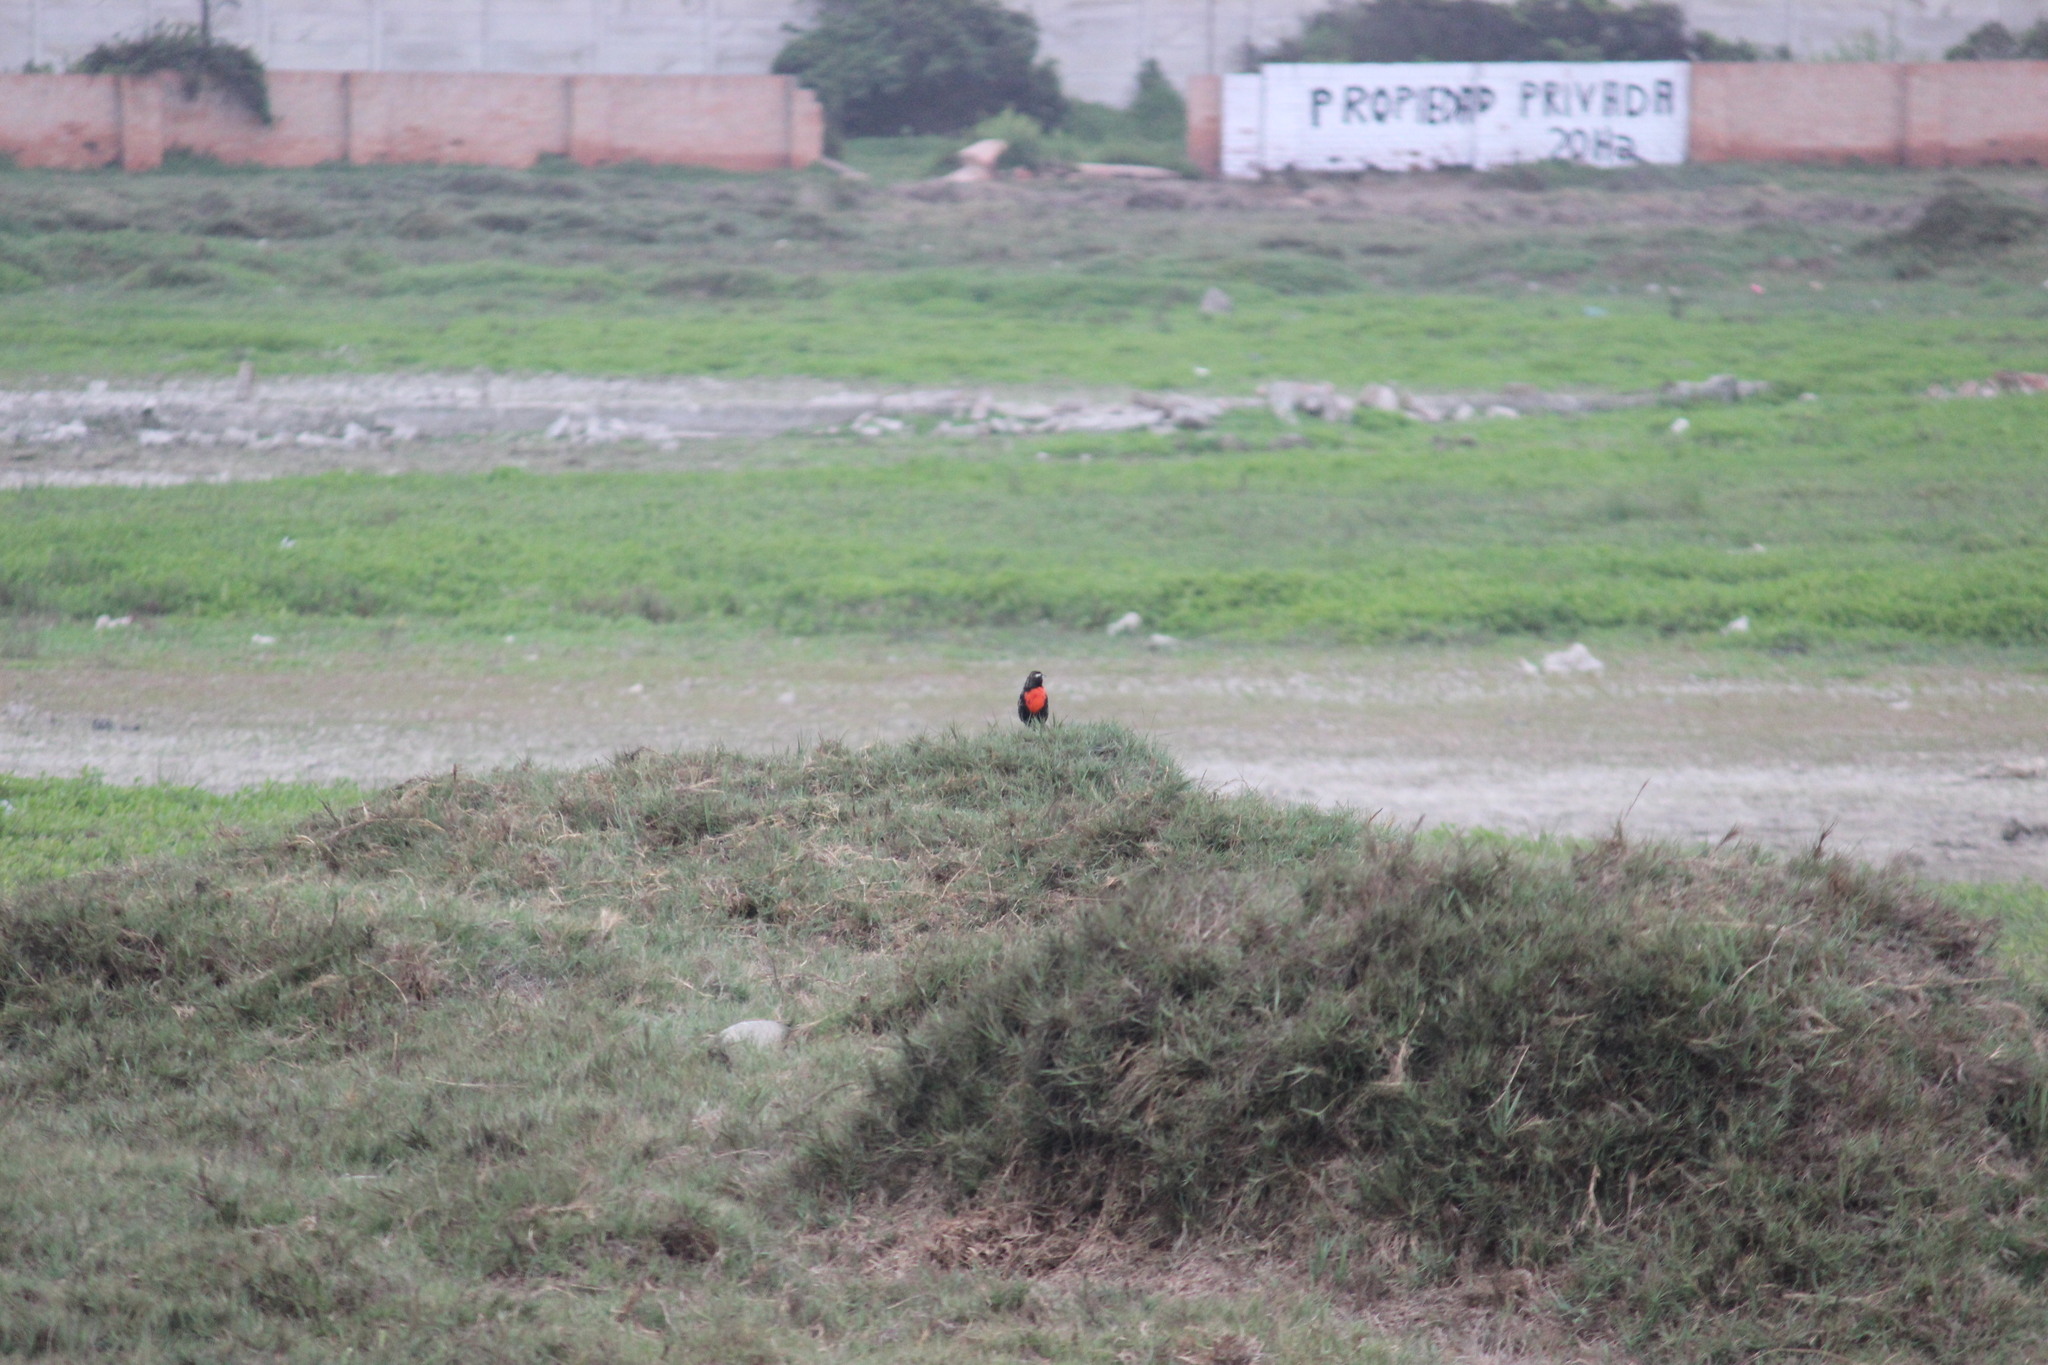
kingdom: Animalia
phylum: Chordata
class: Aves
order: Passeriformes
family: Icteridae
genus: Sturnella
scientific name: Sturnella bellicosa
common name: Peruvian meadowlark
